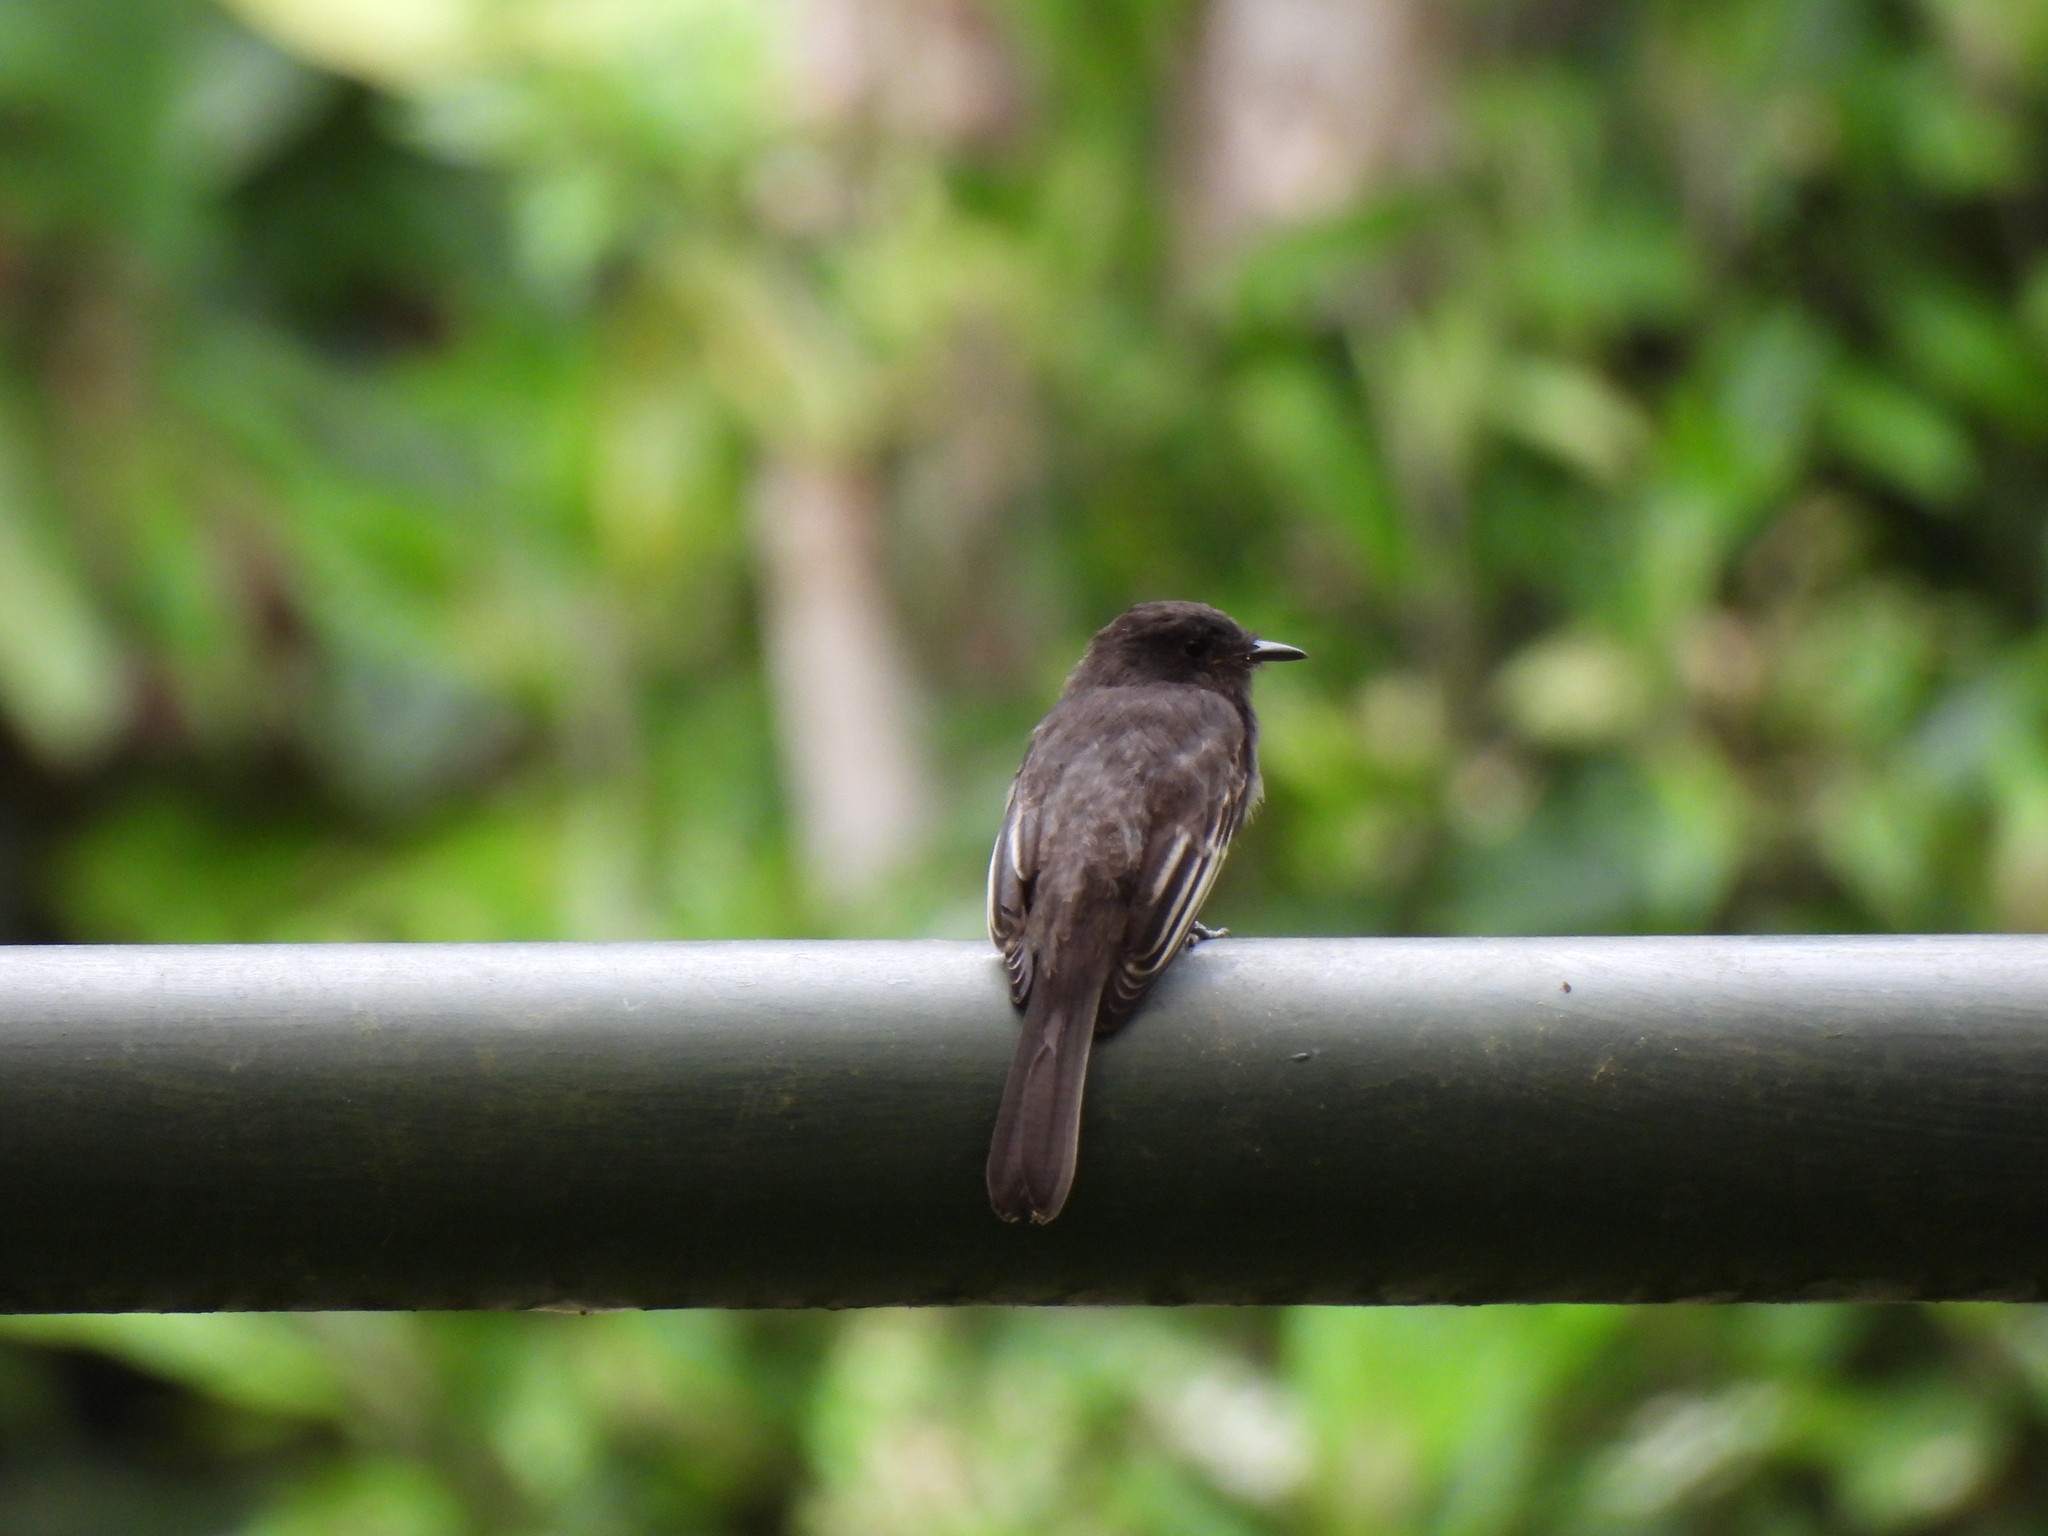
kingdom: Animalia
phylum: Chordata
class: Aves
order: Passeriformes
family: Tyrannidae
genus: Sayornis
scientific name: Sayornis nigricans
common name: Black phoebe
